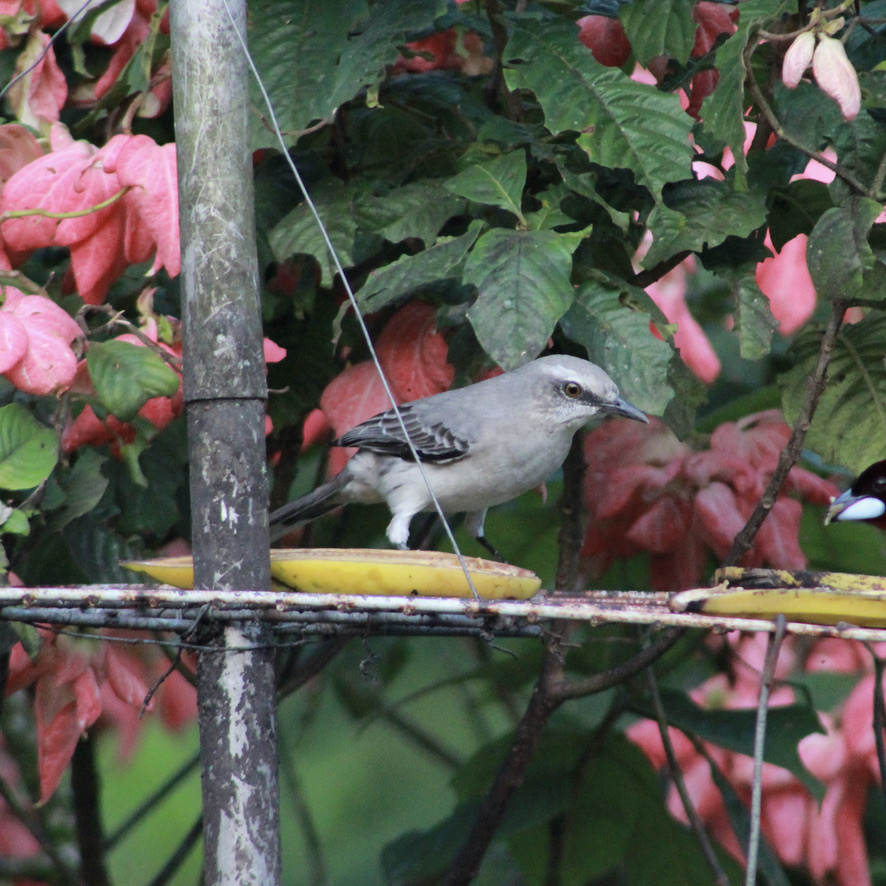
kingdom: Animalia
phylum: Chordata
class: Aves
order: Passeriformes
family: Mimidae
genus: Mimus
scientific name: Mimus gilvus
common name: Tropical mockingbird
